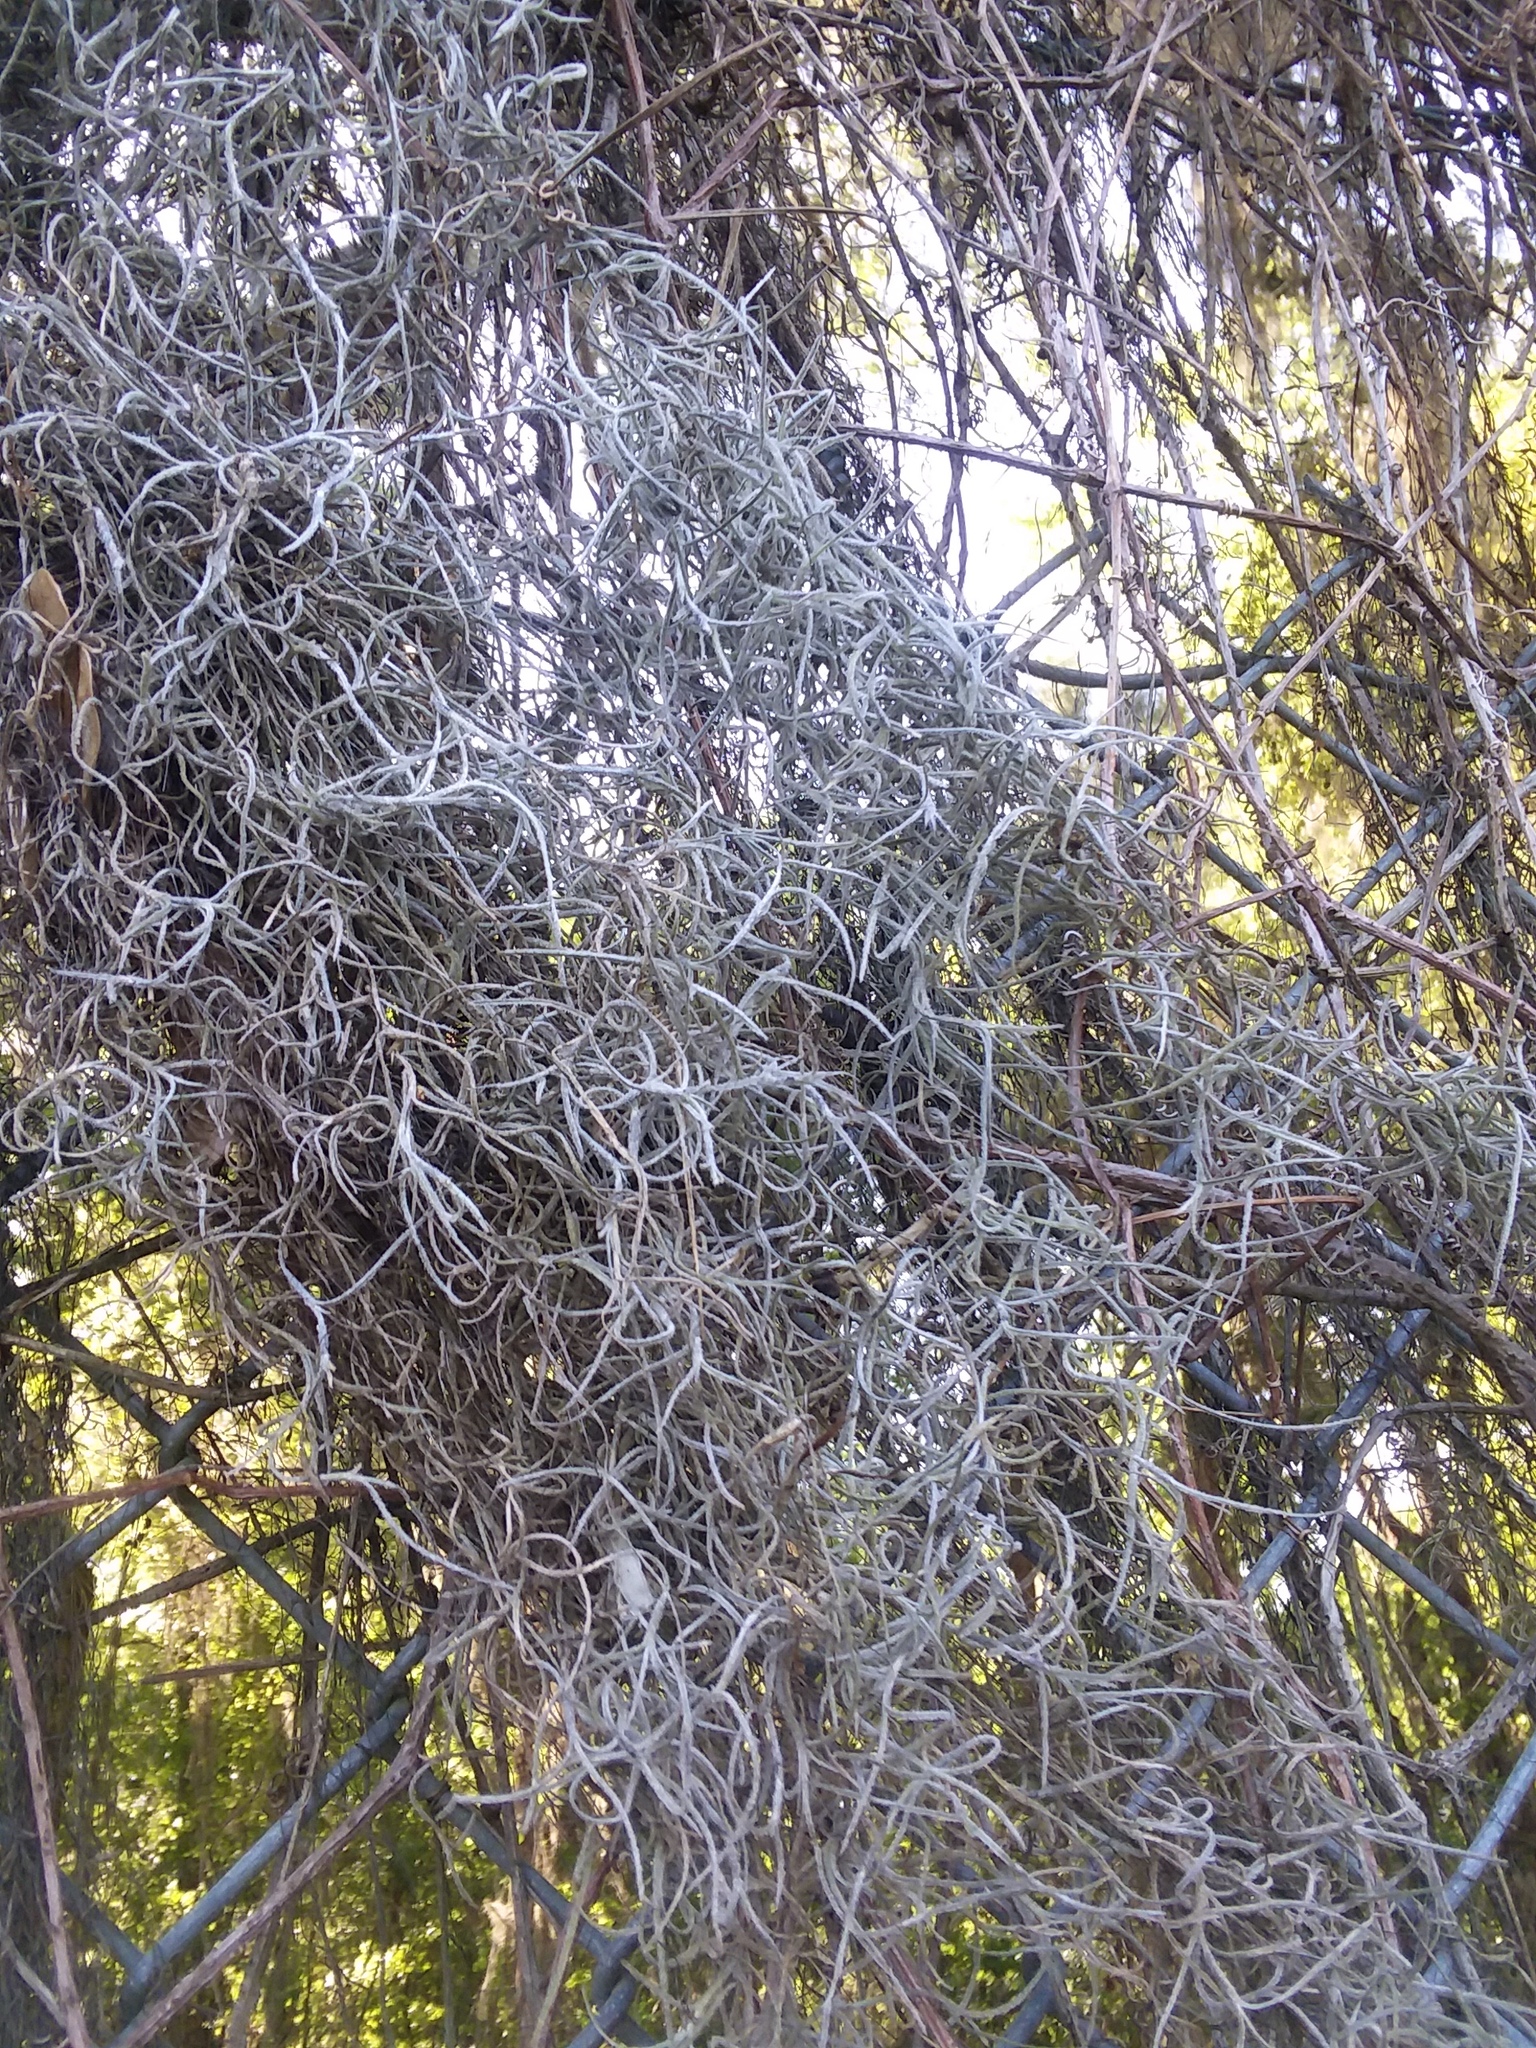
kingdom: Plantae
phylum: Tracheophyta
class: Liliopsida
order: Poales
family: Bromeliaceae
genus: Tillandsia
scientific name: Tillandsia usneoides
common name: Spanish moss
